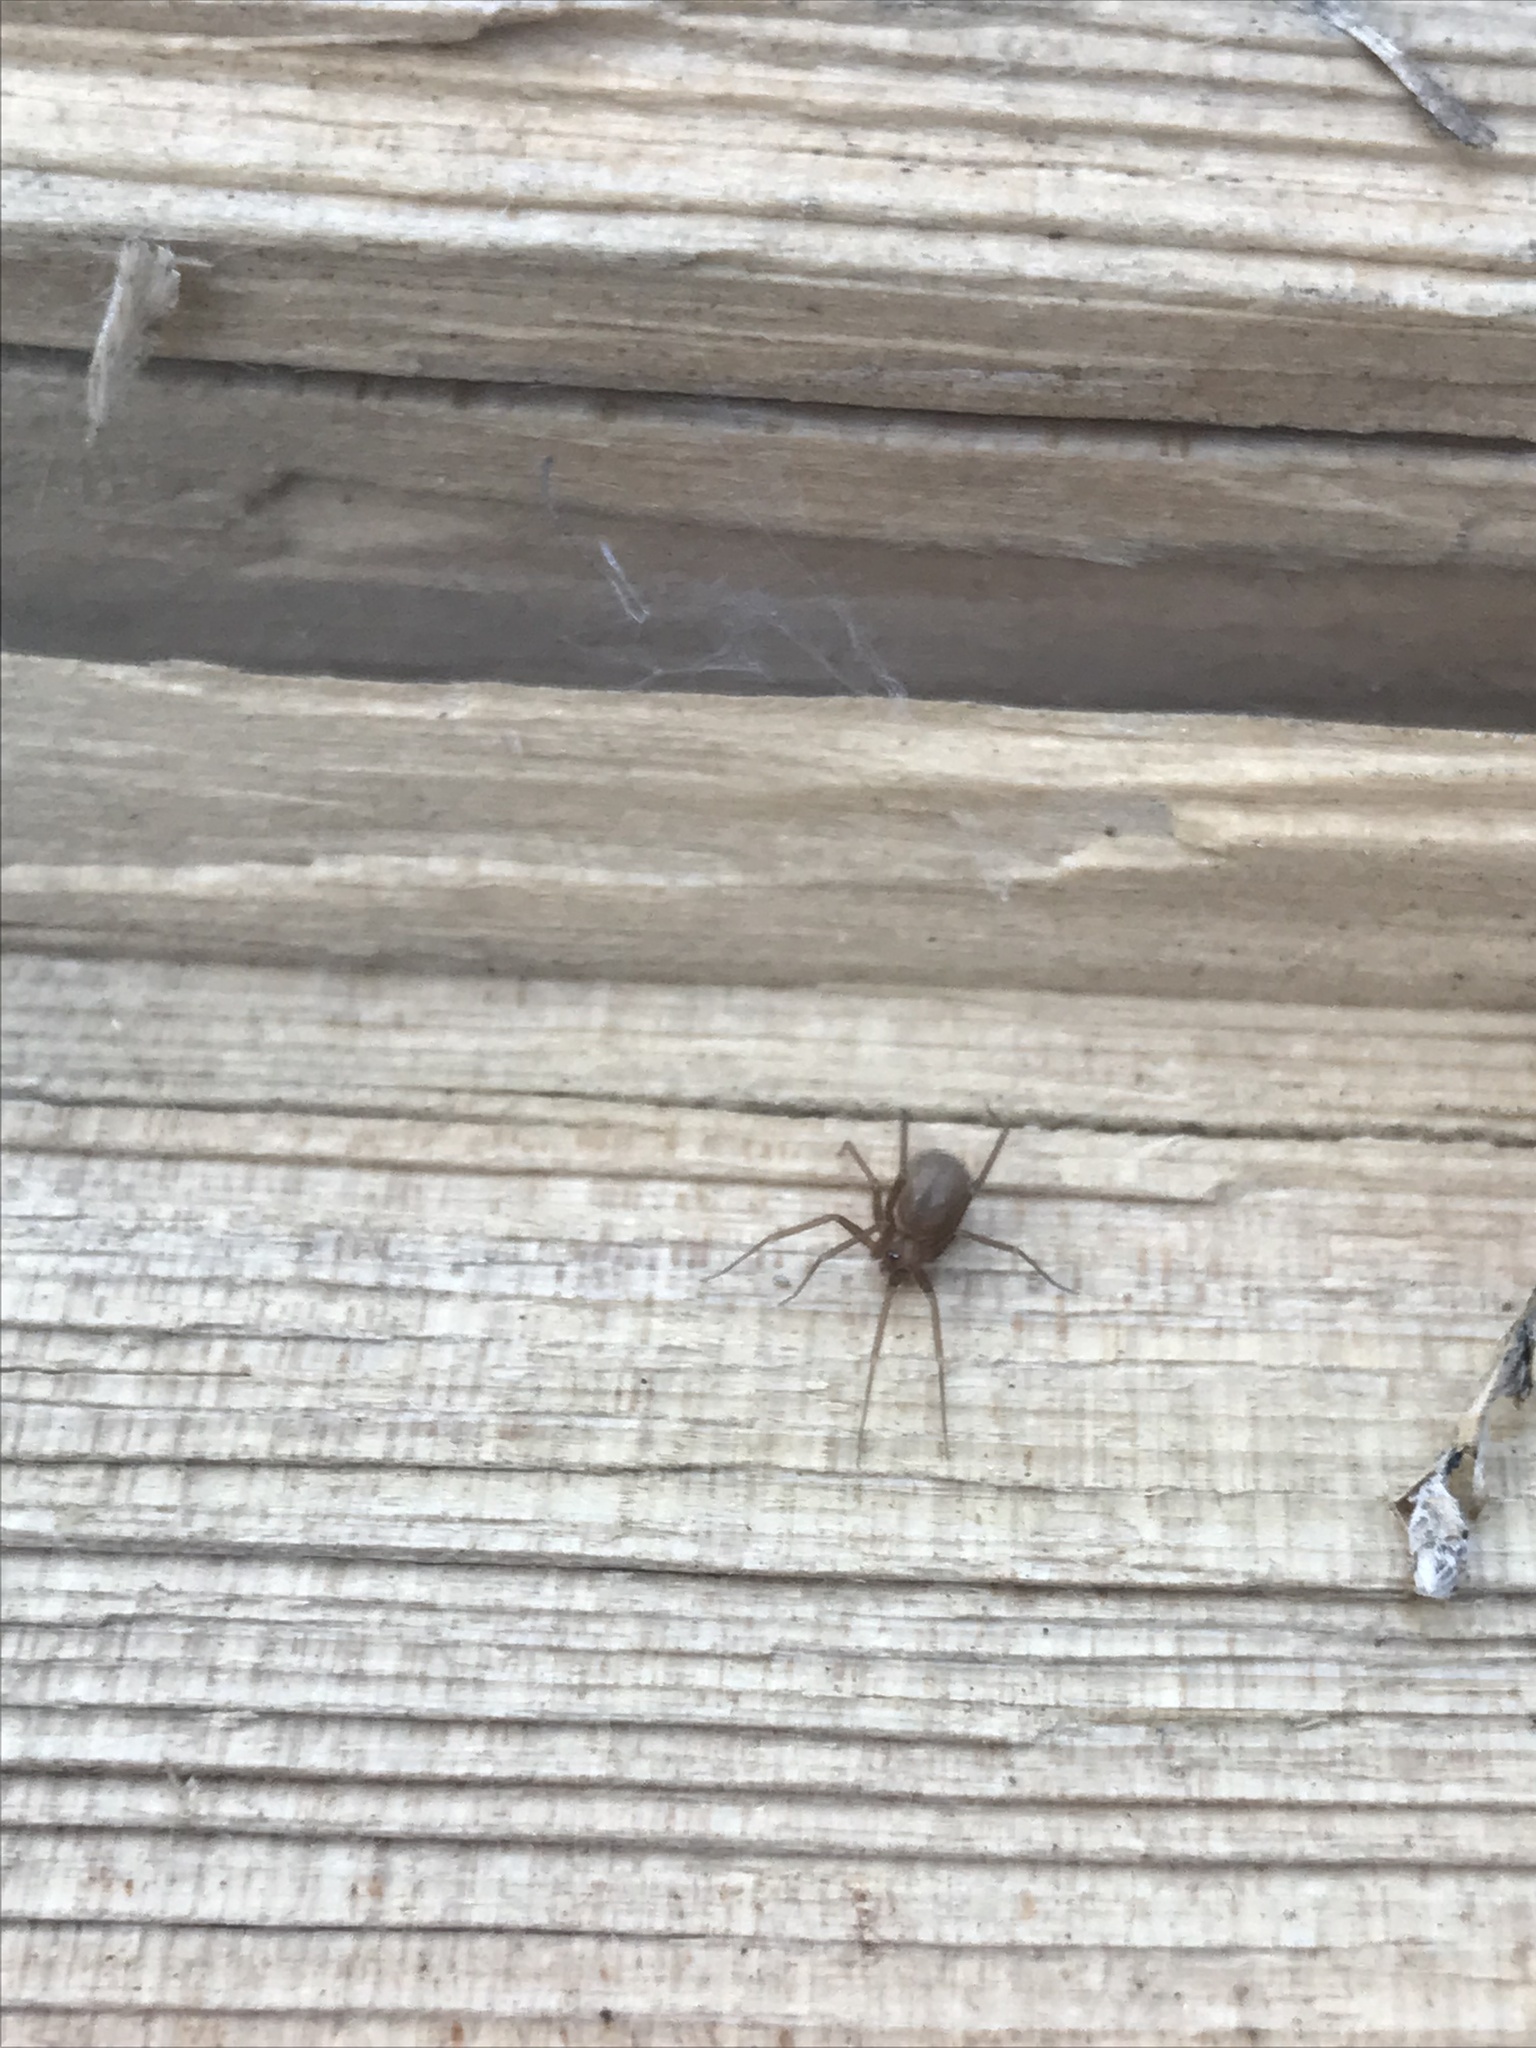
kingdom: Animalia
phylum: Arthropoda
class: Arachnida
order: Araneae
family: Pholcidae
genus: Pholcophora
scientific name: Pholcophora americana
